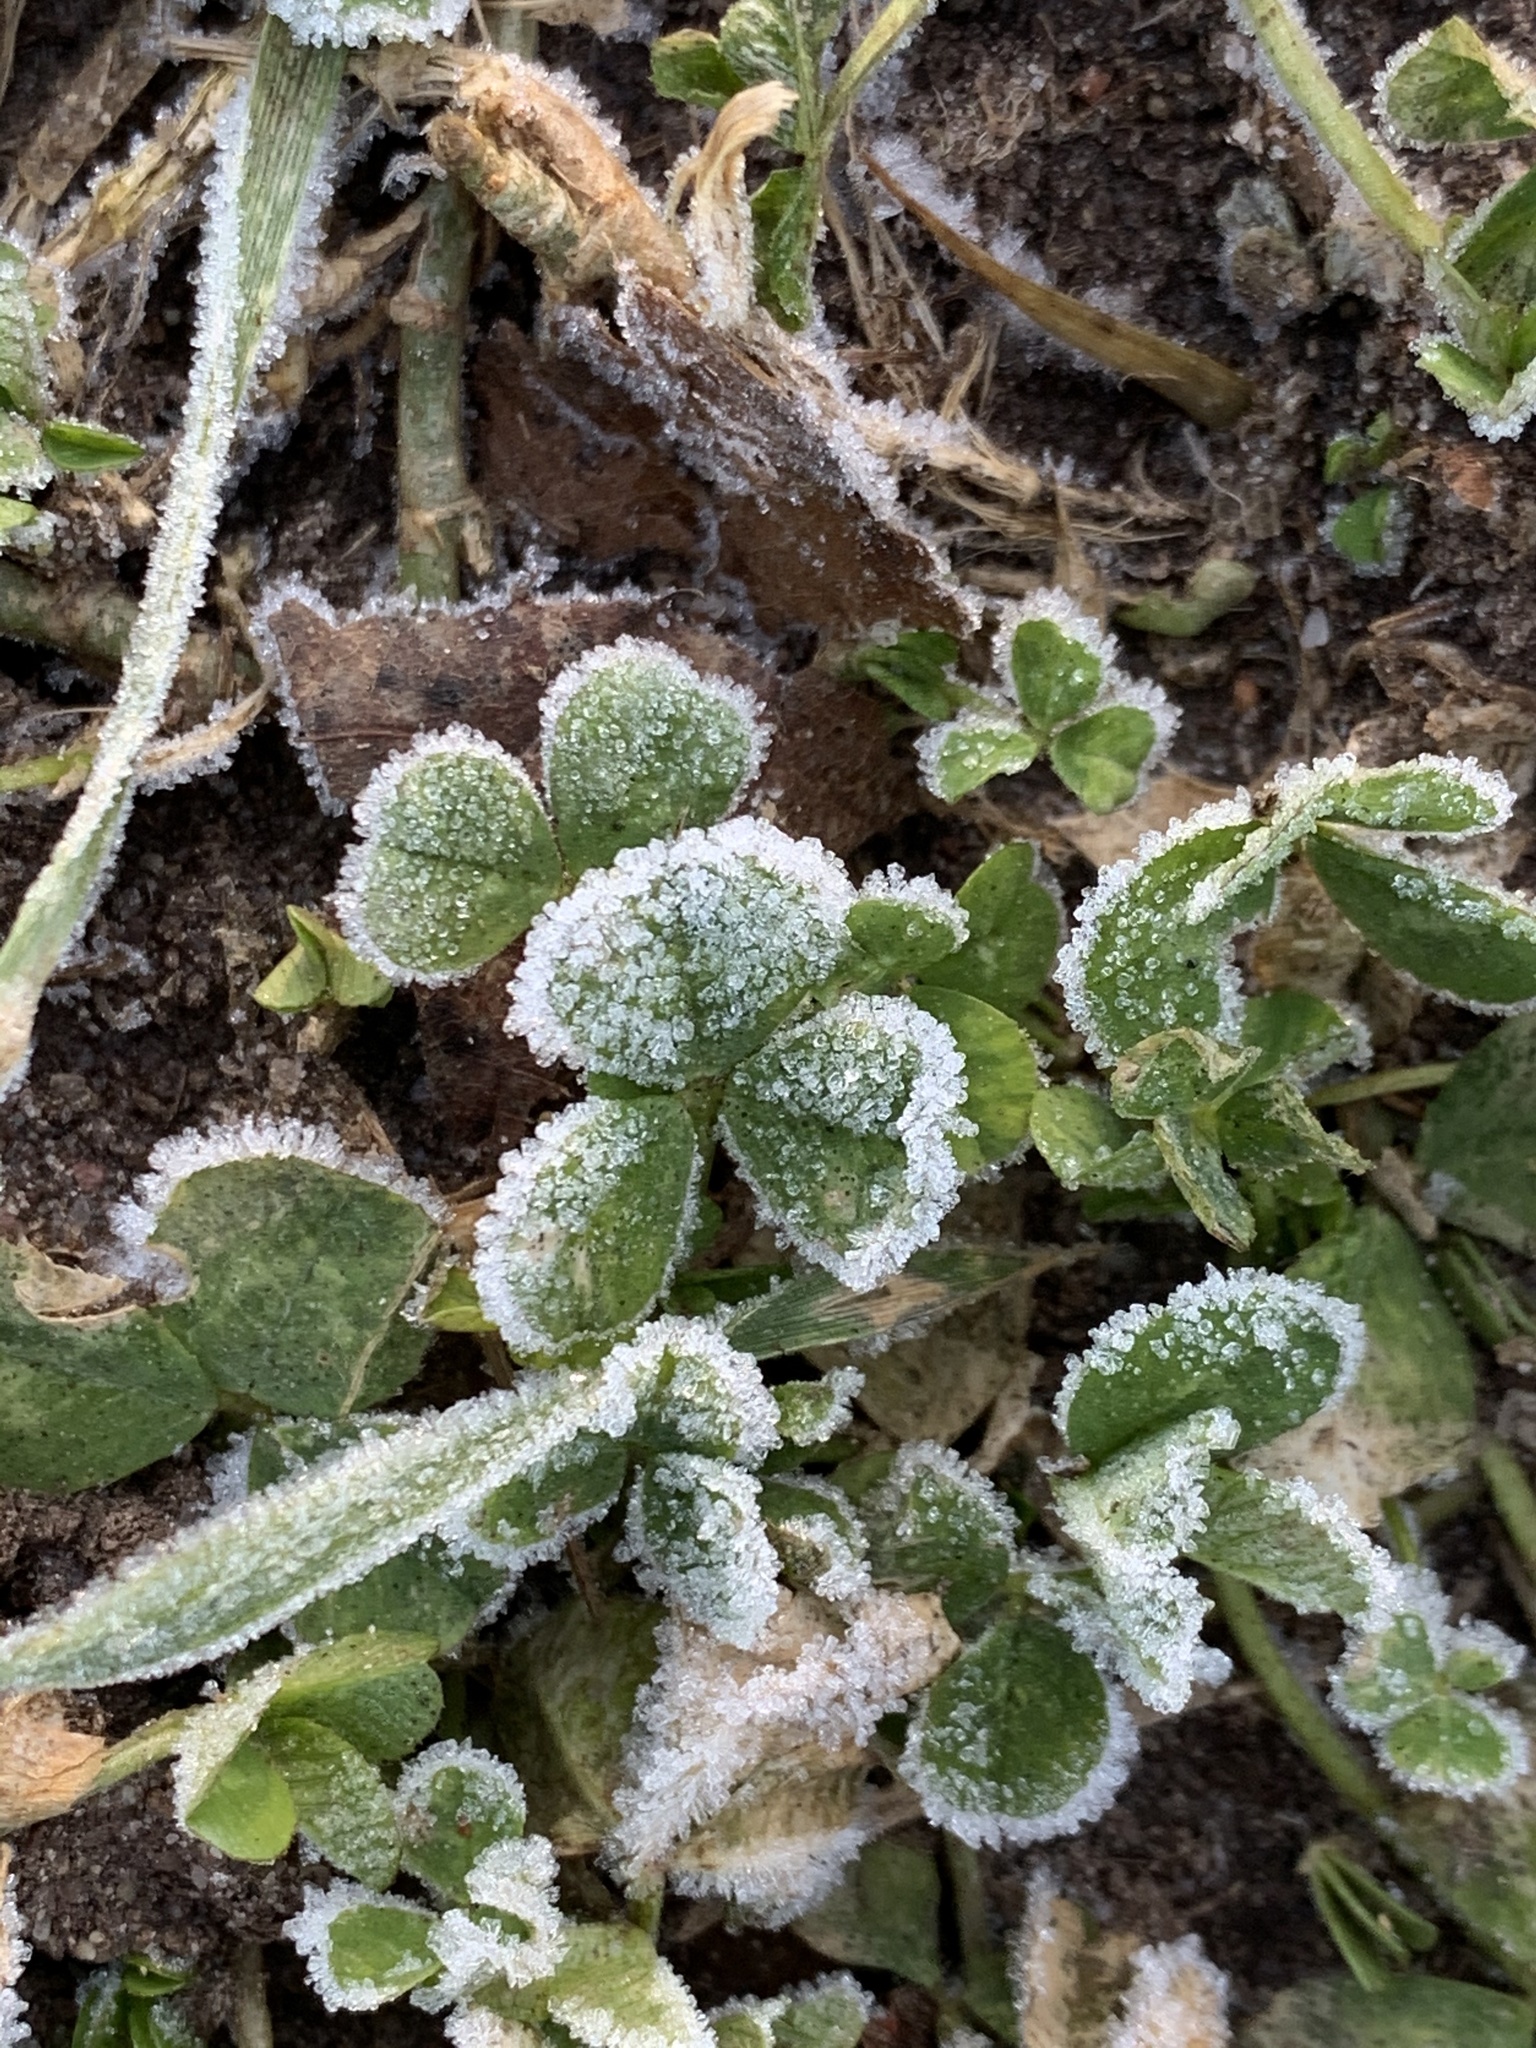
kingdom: Plantae
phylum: Tracheophyta
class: Magnoliopsida
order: Fabales
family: Fabaceae
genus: Trifolium
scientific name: Trifolium repens
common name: White clover
